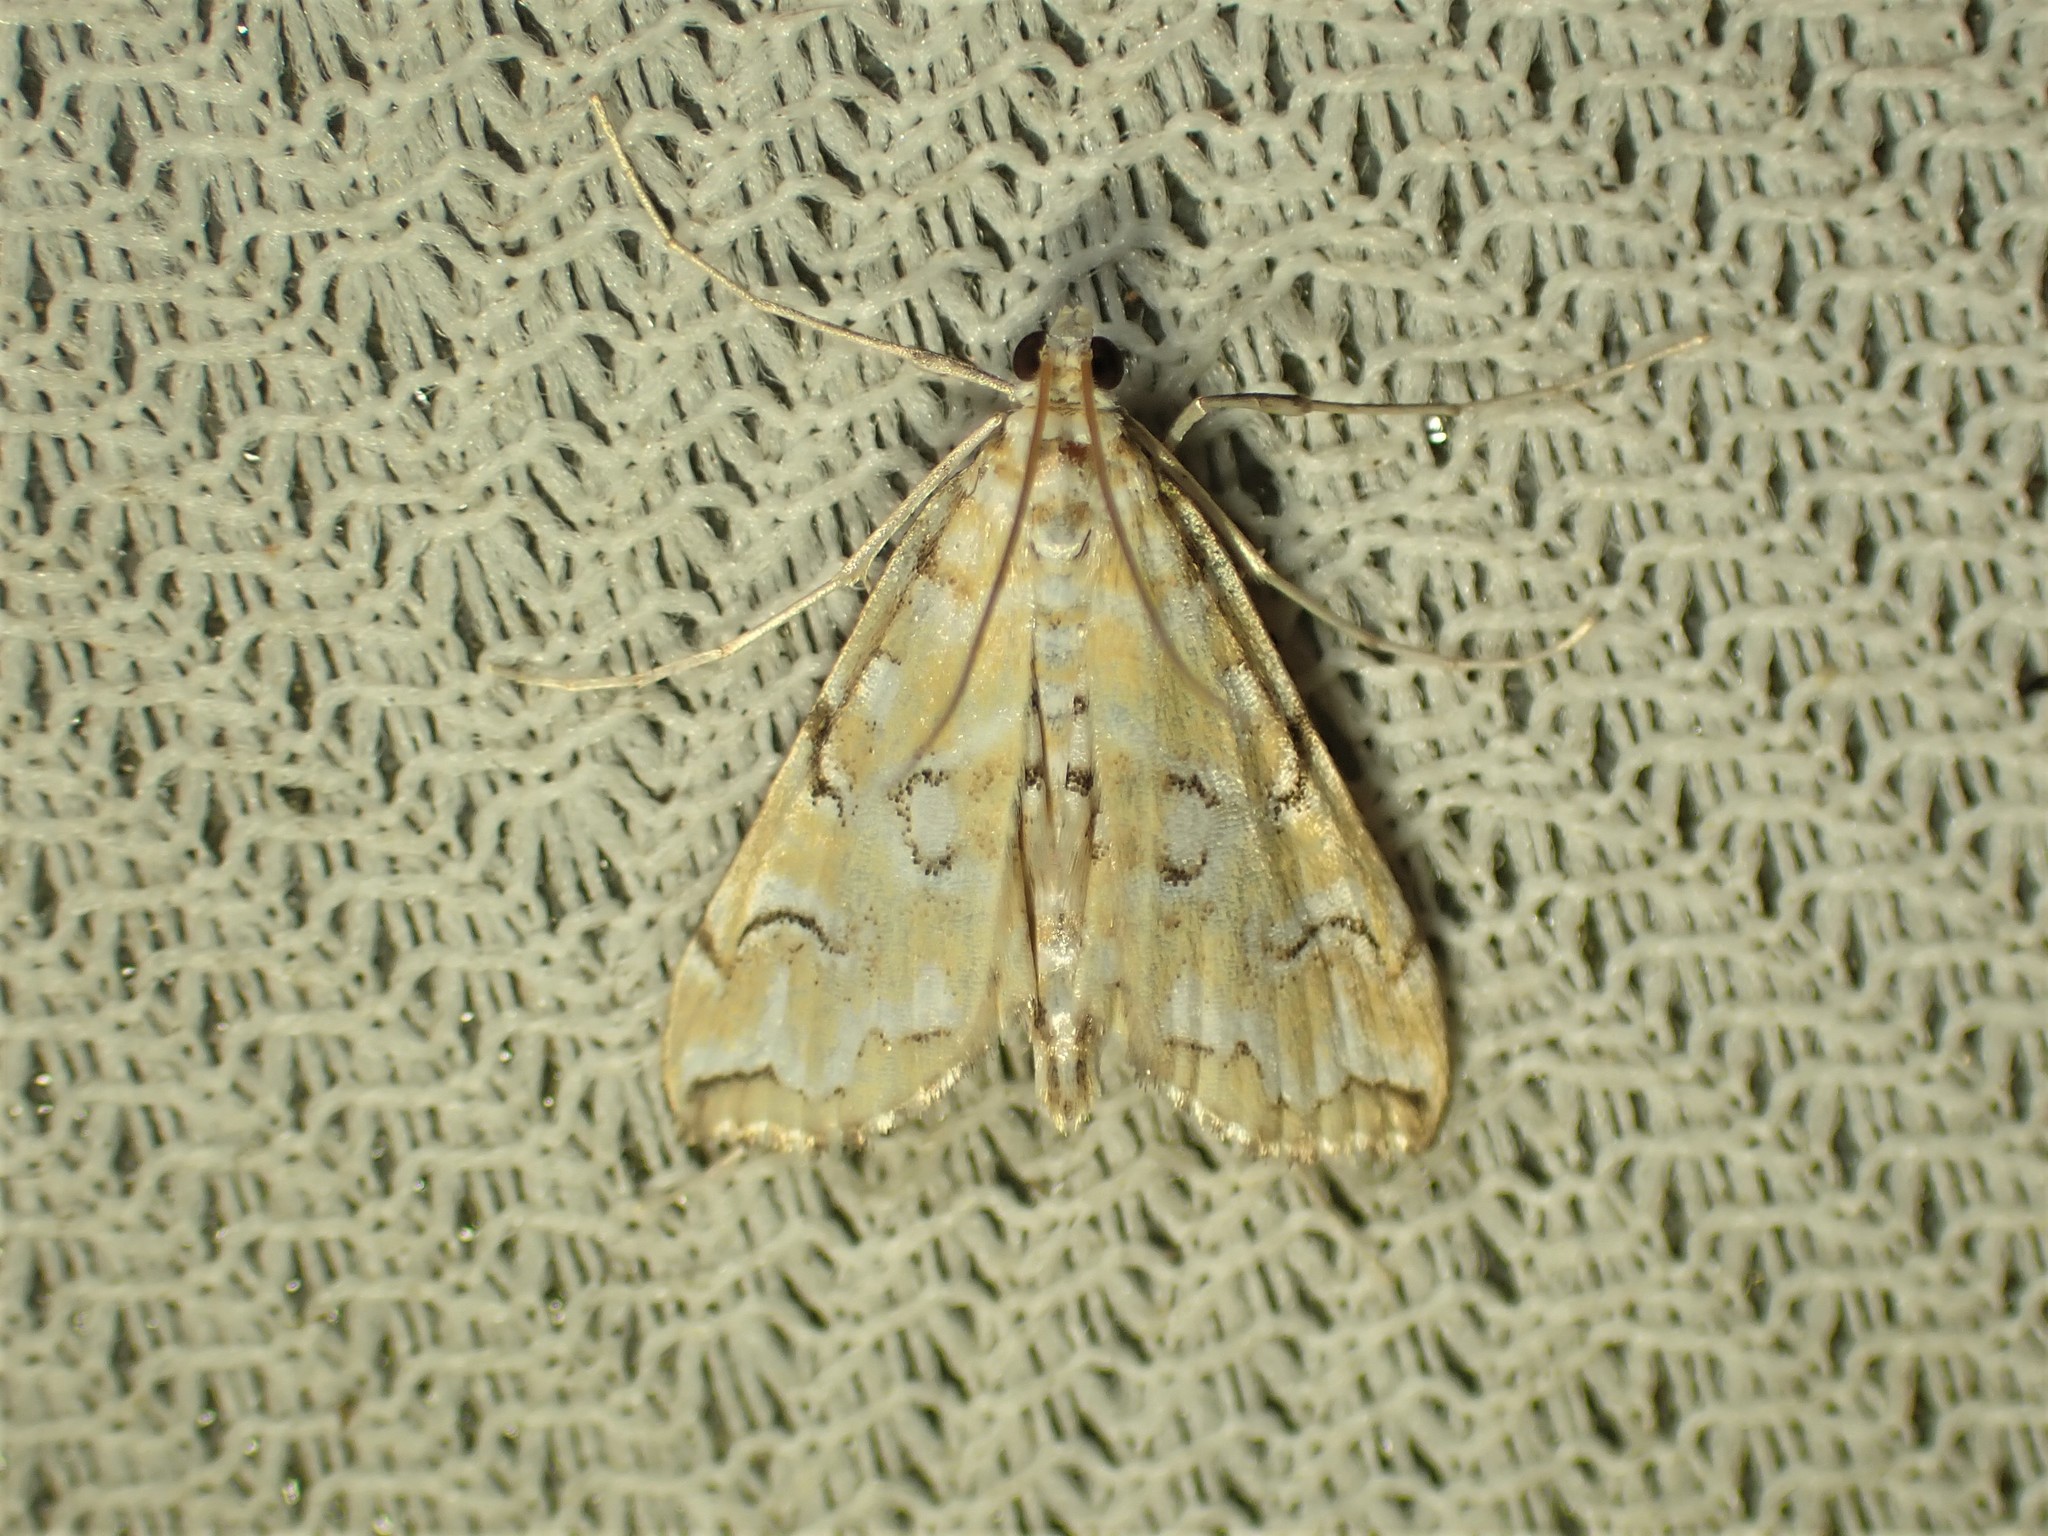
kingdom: Animalia
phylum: Arthropoda
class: Insecta
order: Lepidoptera
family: Crambidae
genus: Elophila
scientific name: Elophila icciusalis
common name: Pondside pyralid moth
